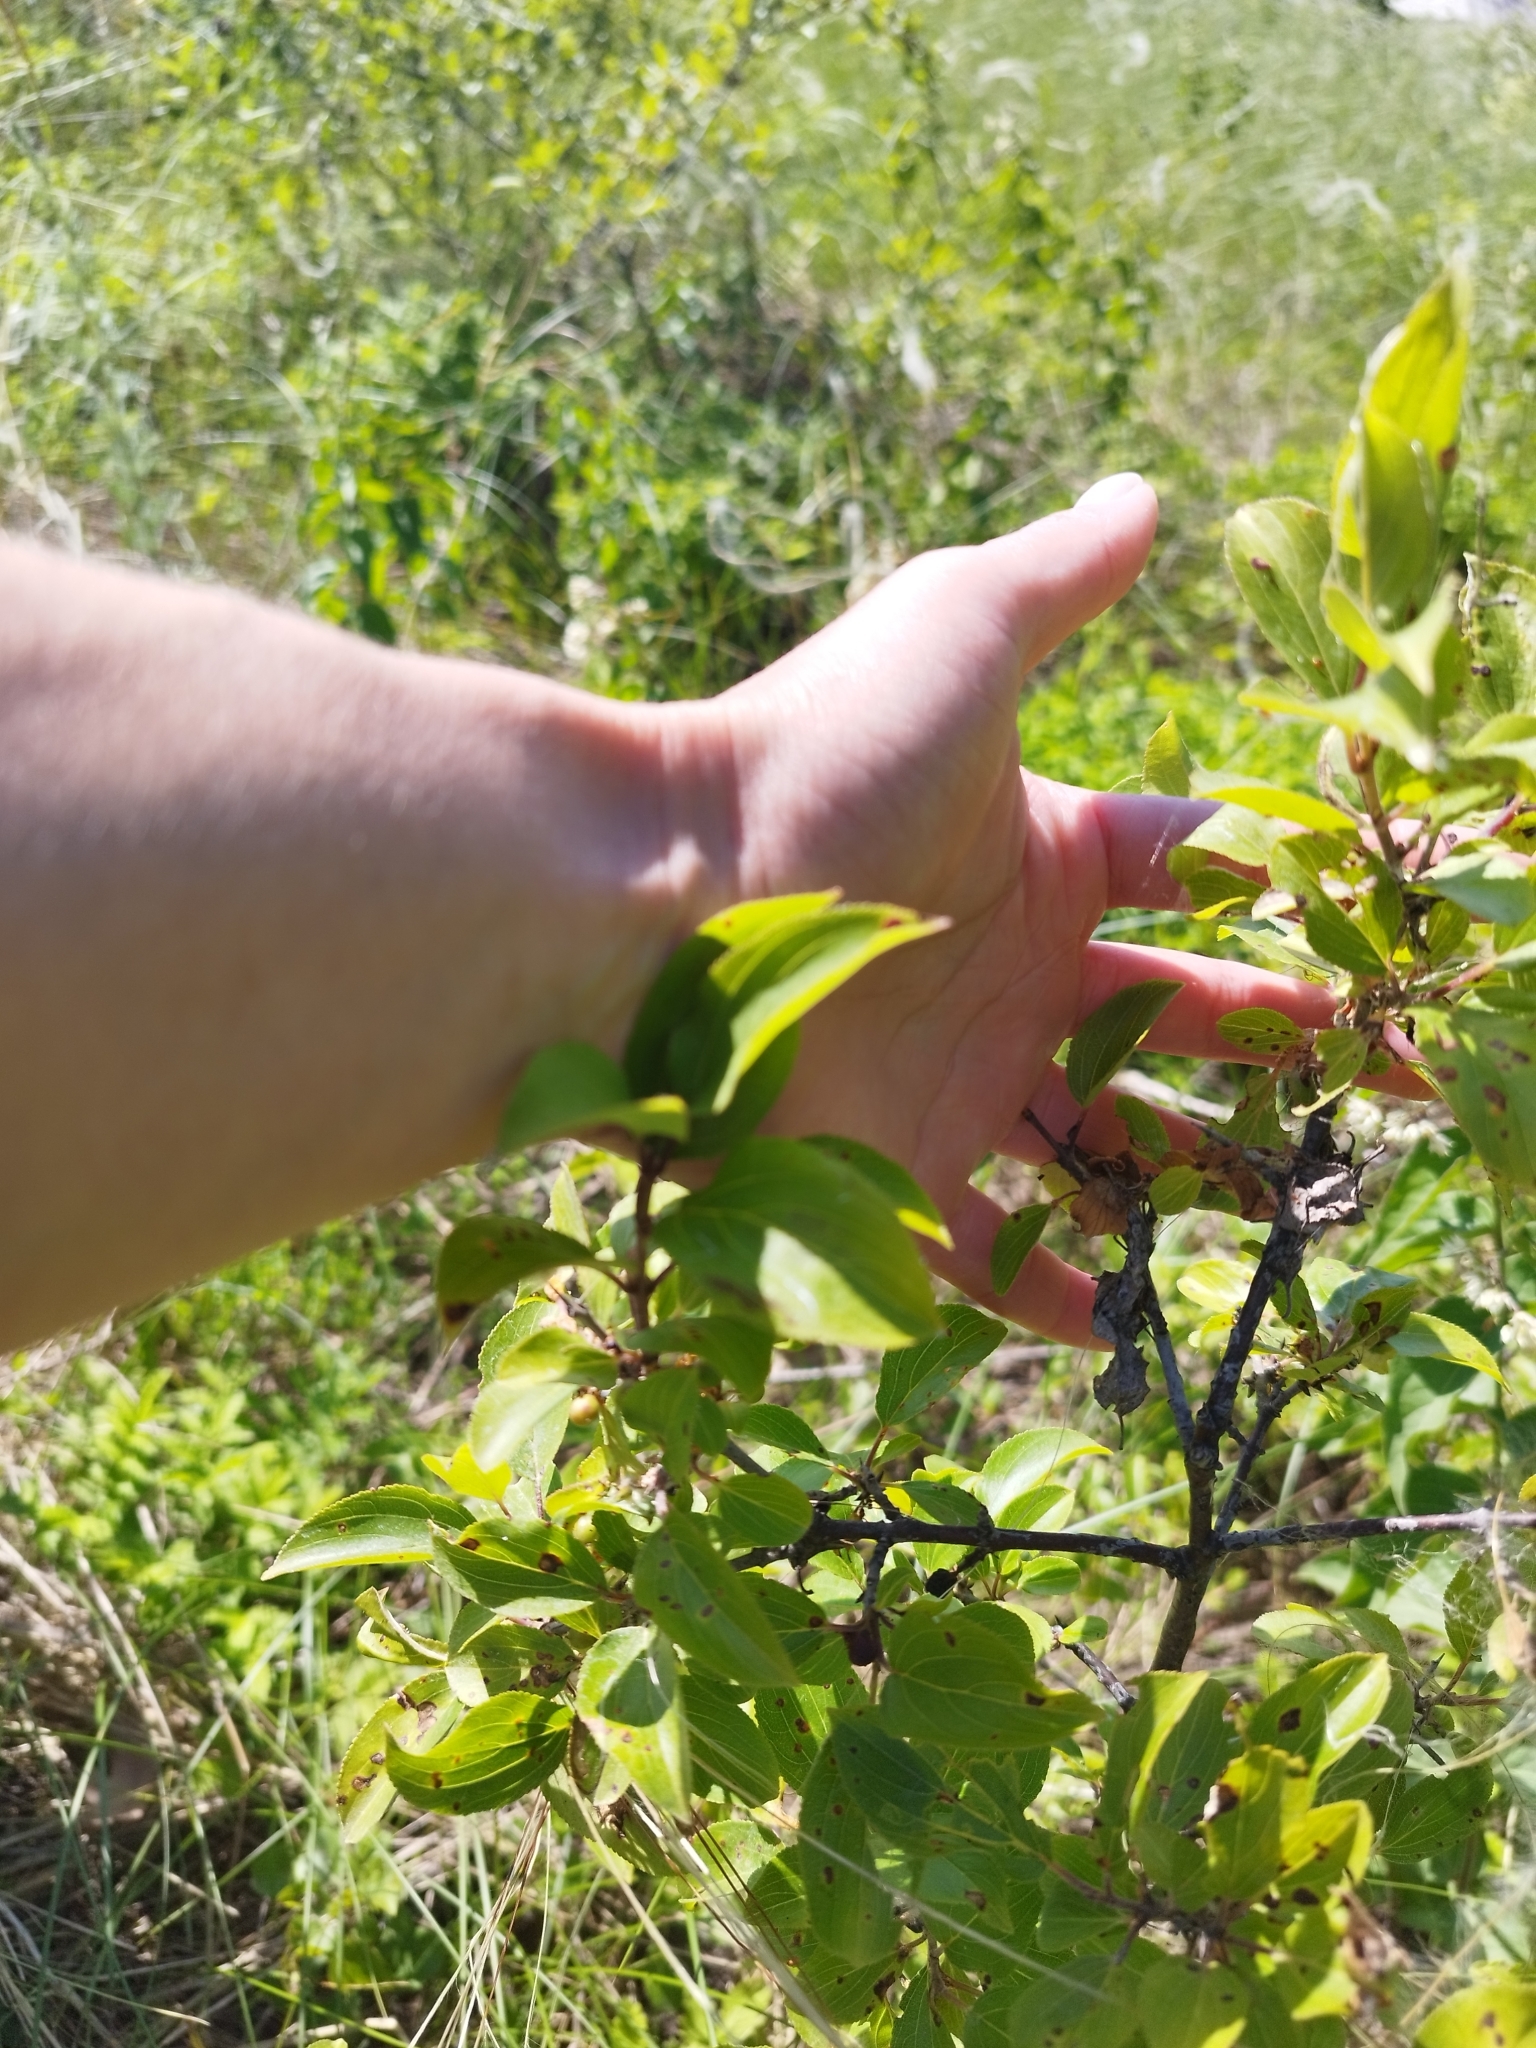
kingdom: Plantae
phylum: Tracheophyta
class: Magnoliopsida
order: Rosales
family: Rosaceae
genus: Prunus
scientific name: Prunus spinosa
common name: Blackthorn
